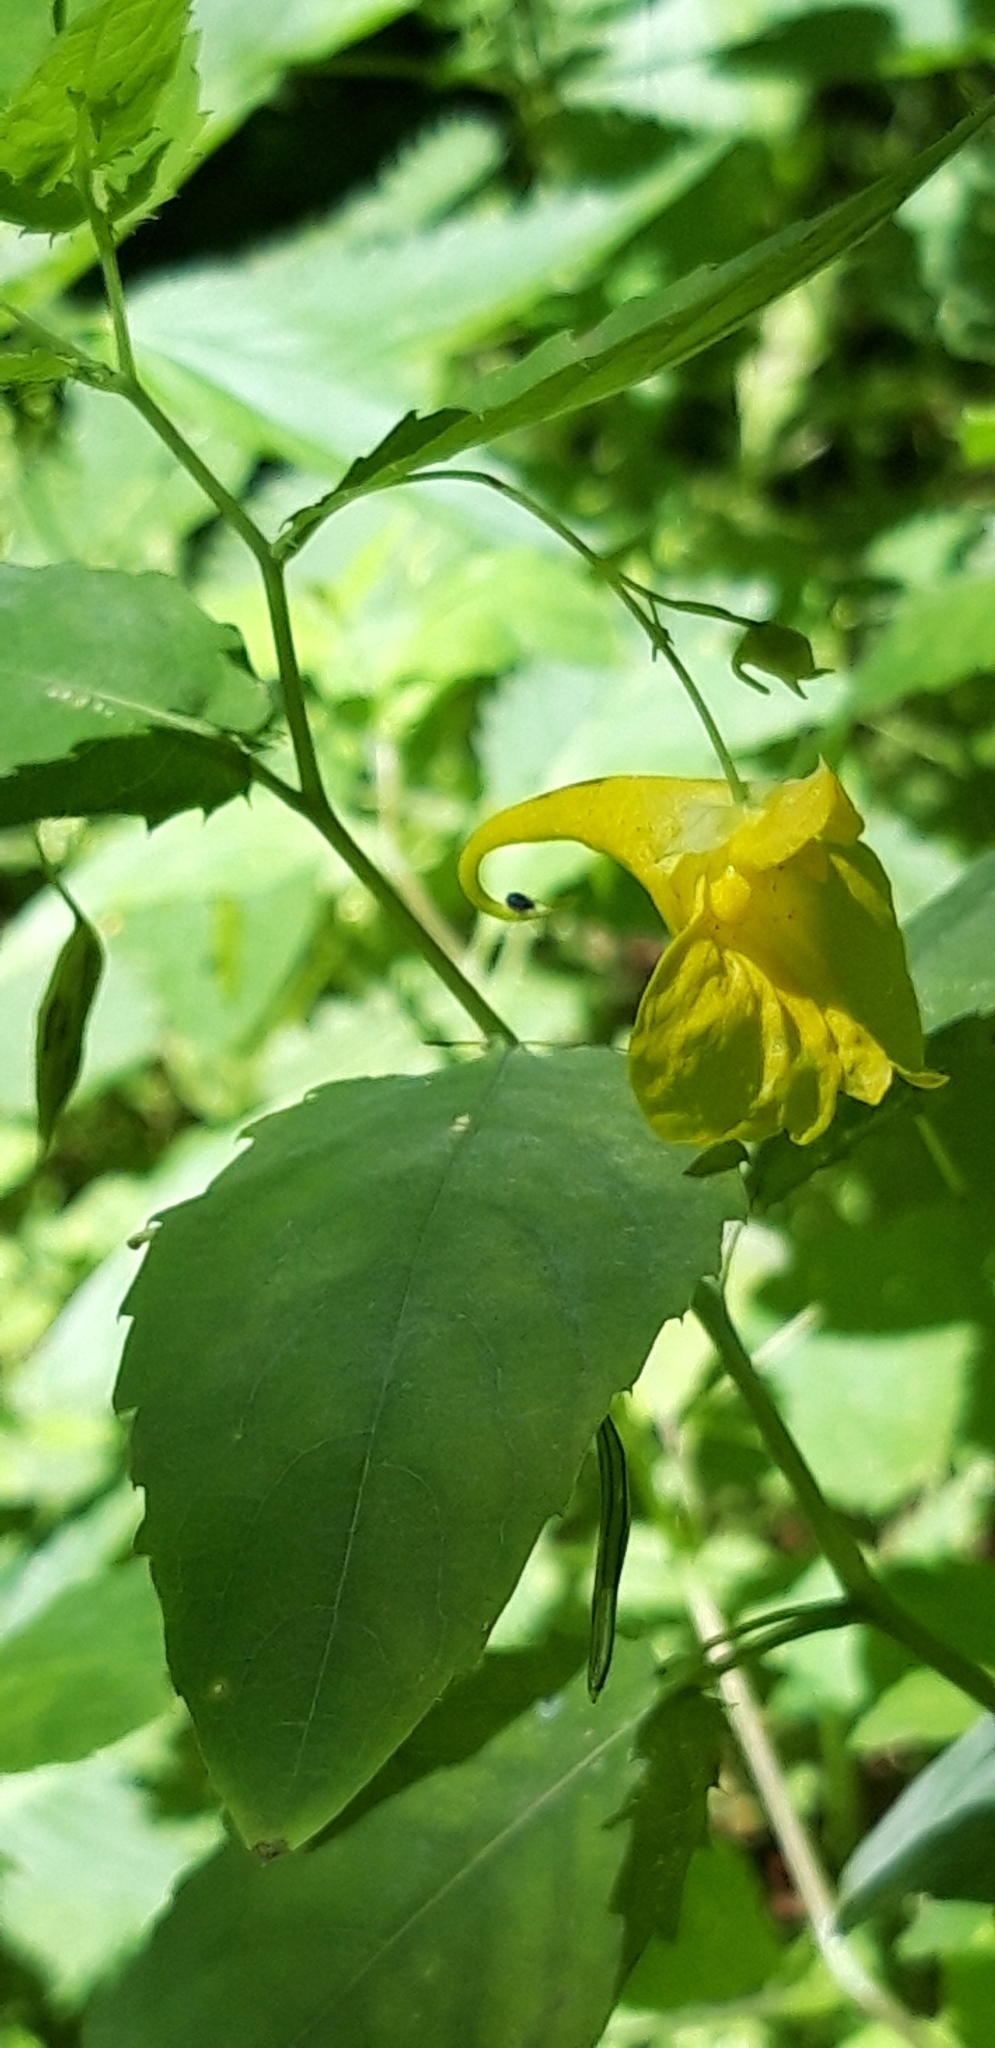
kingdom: Plantae
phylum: Tracheophyta
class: Magnoliopsida
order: Ericales
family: Balsaminaceae
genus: Impatiens
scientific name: Impatiens noli-tangere
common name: Touch-me-not balsam
